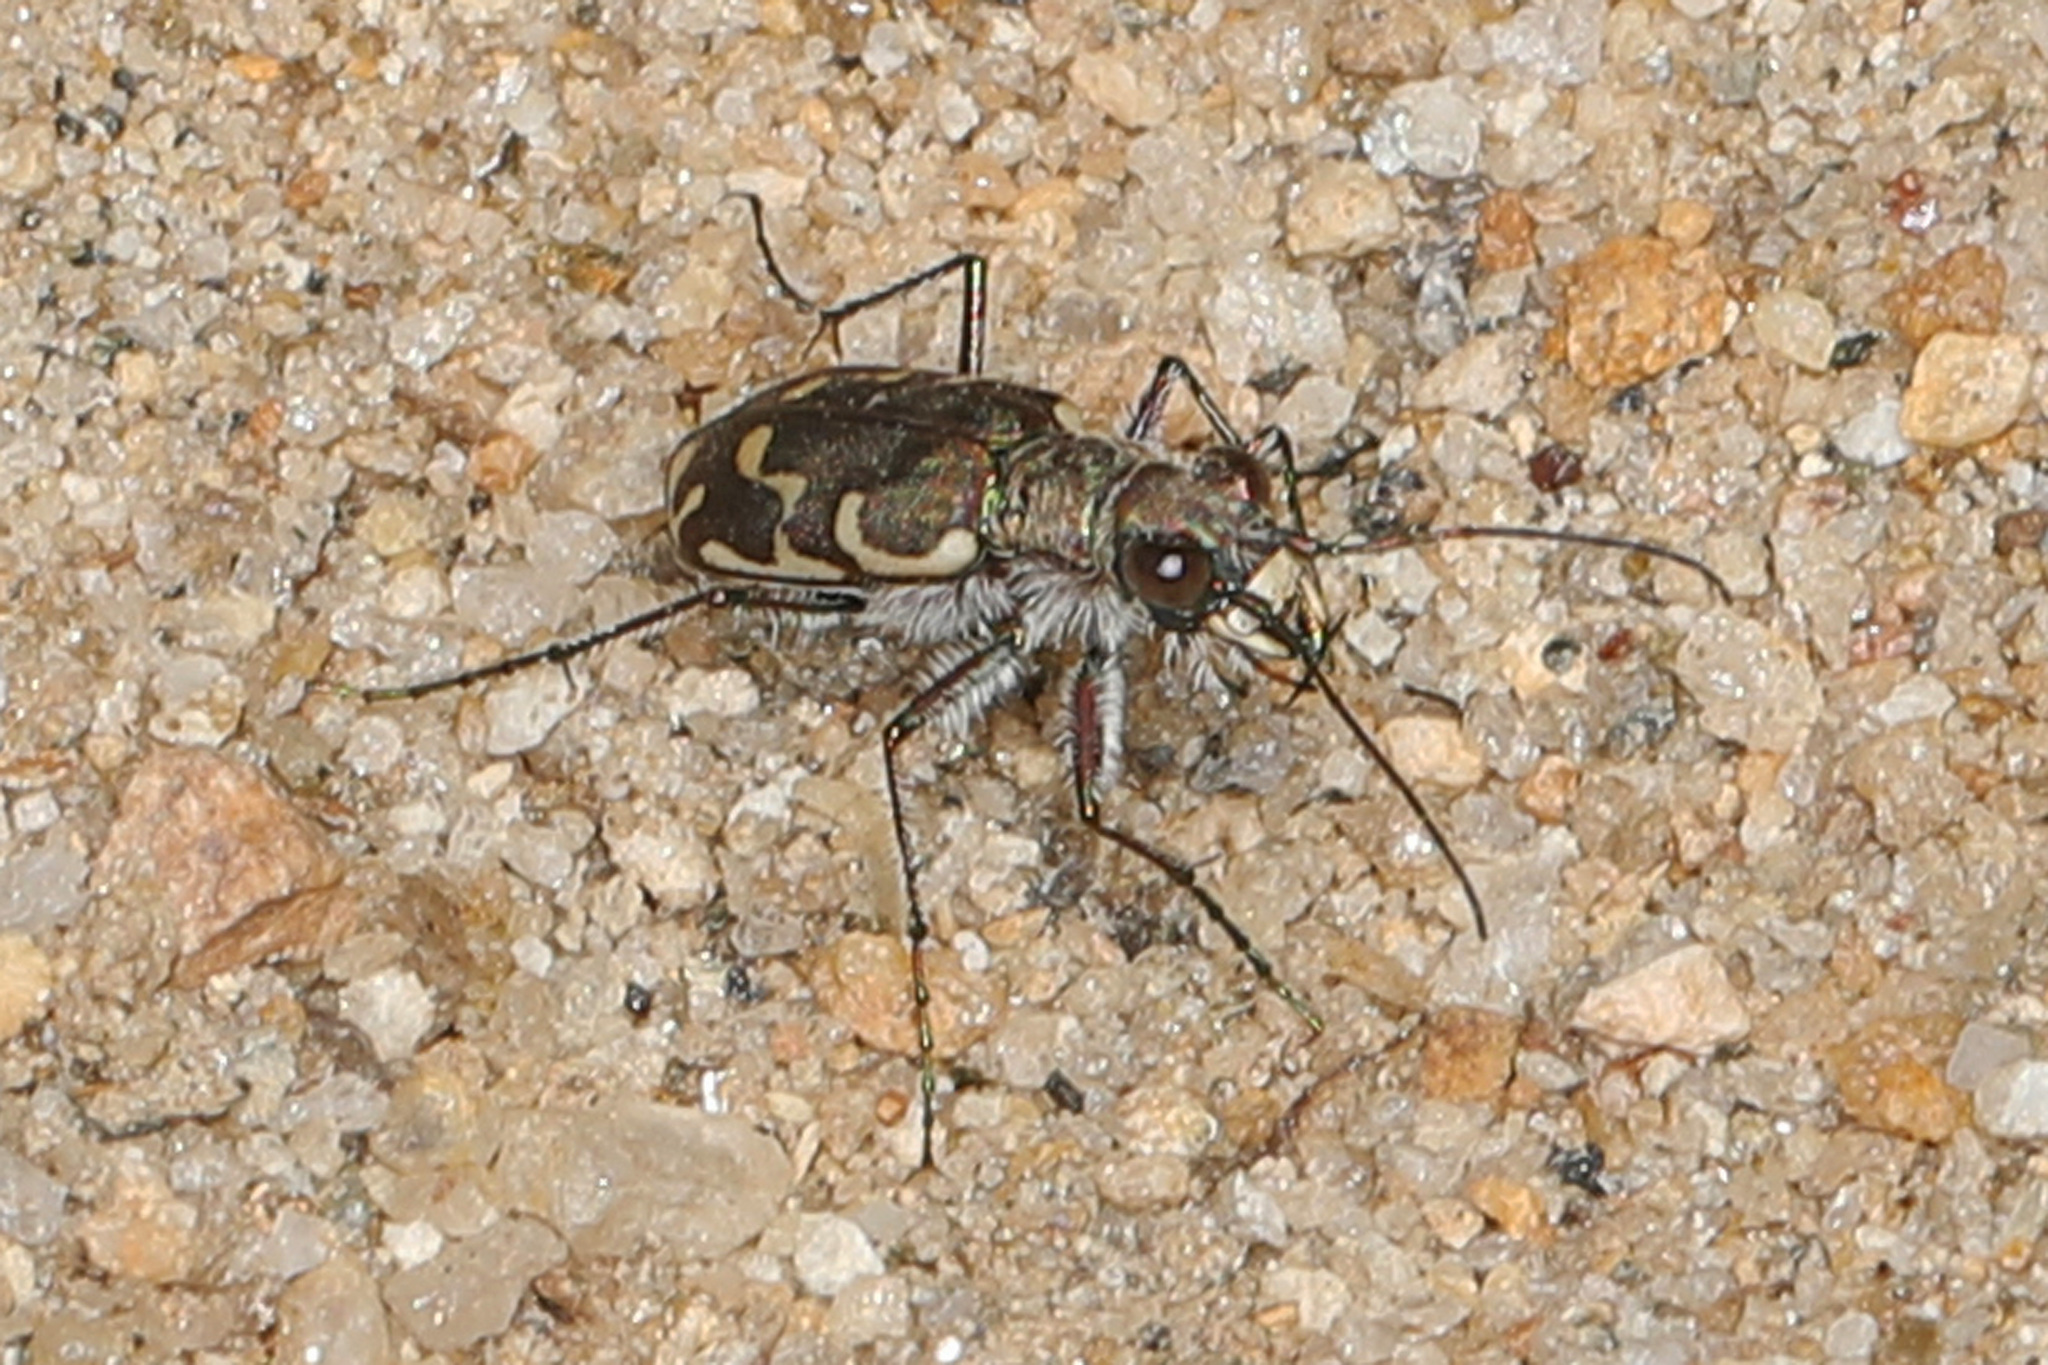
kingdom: Animalia
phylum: Arthropoda
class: Insecta
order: Coleoptera
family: Carabidae
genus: Cicindela
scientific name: Cicindela repanda
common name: Bronzed tiger beetle
